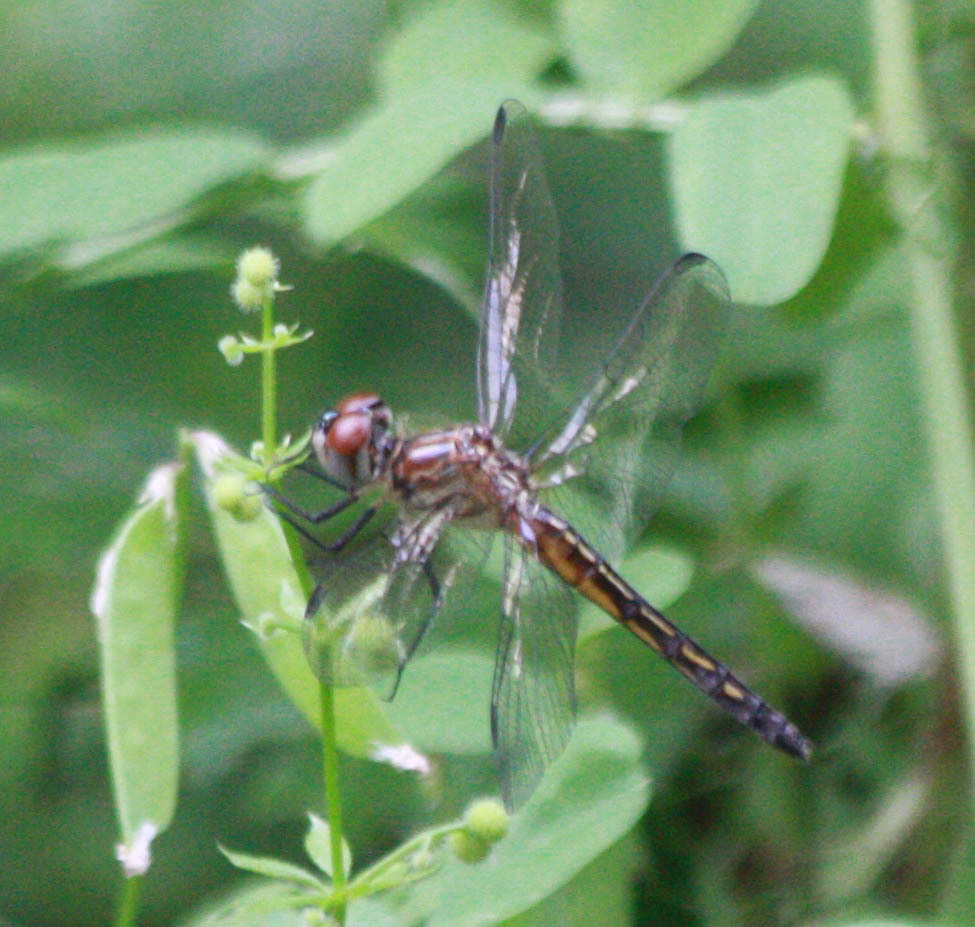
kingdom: Animalia
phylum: Arthropoda
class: Insecta
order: Odonata
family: Libellulidae
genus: Pachydiplax
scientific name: Pachydiplax longipennis
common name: Blue dasher
